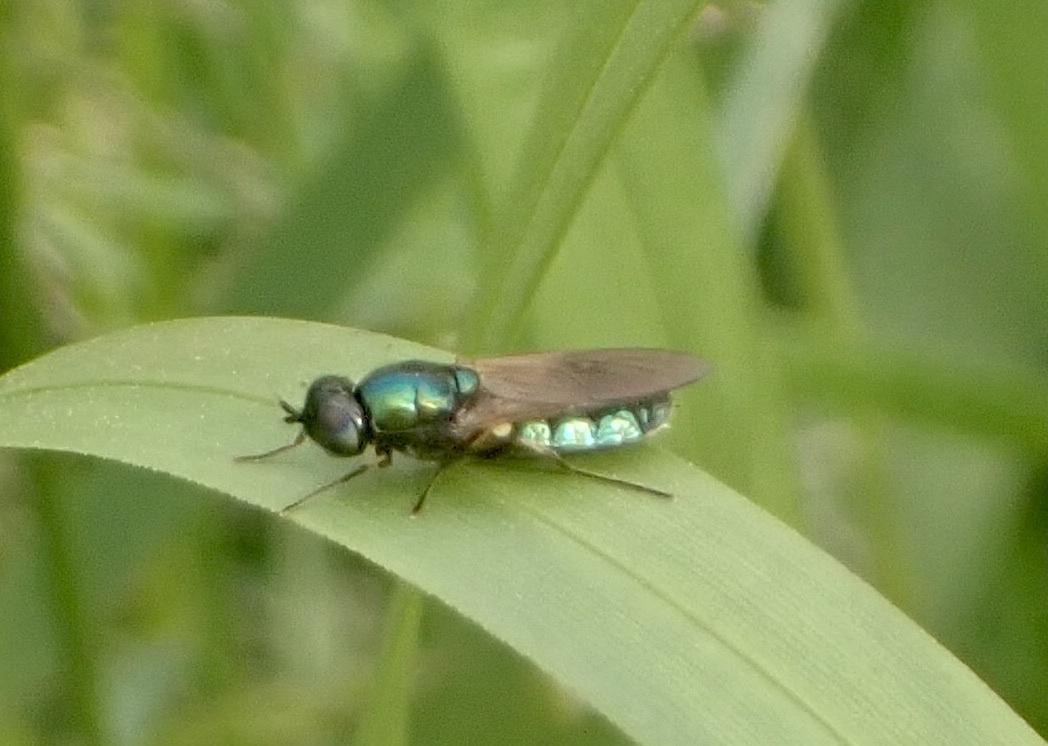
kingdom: Animalia
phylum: Arthropoda
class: Insecta
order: Diptera
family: Stratiomyidae
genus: Chloromyia
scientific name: Chloromyia formosa
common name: Soldier fly
